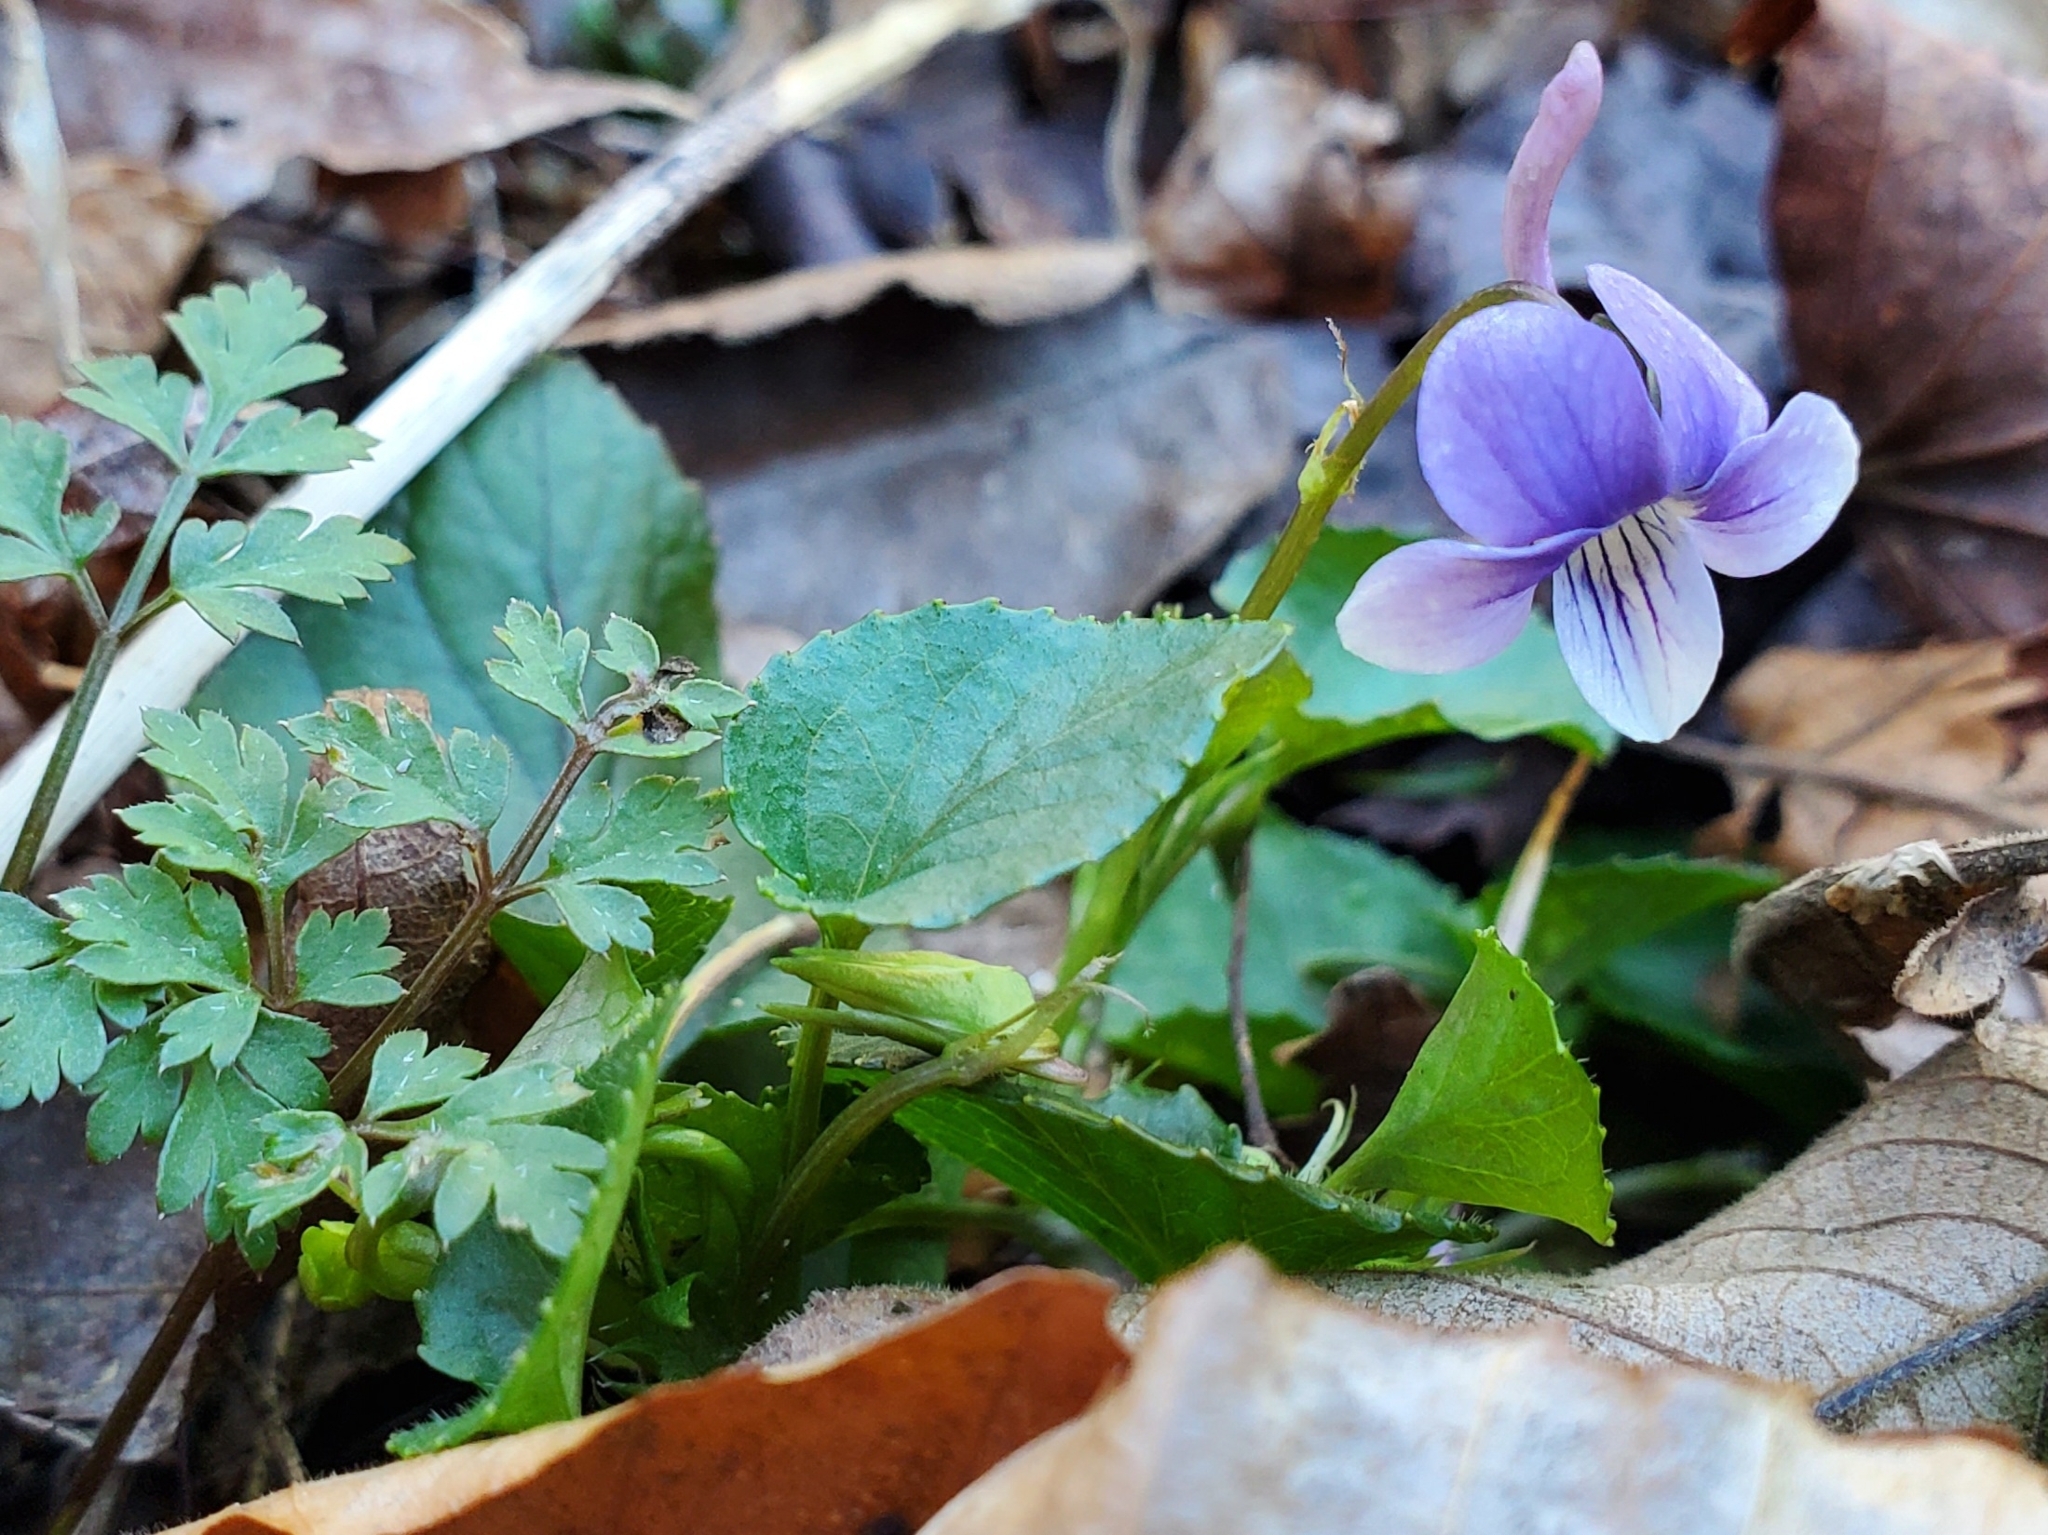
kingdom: Plantae
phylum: Tracheophyta
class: Magnoliopsida
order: Malpighiales
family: Violaceae
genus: Viola
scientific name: Viola rostrata
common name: Long-spur violet
